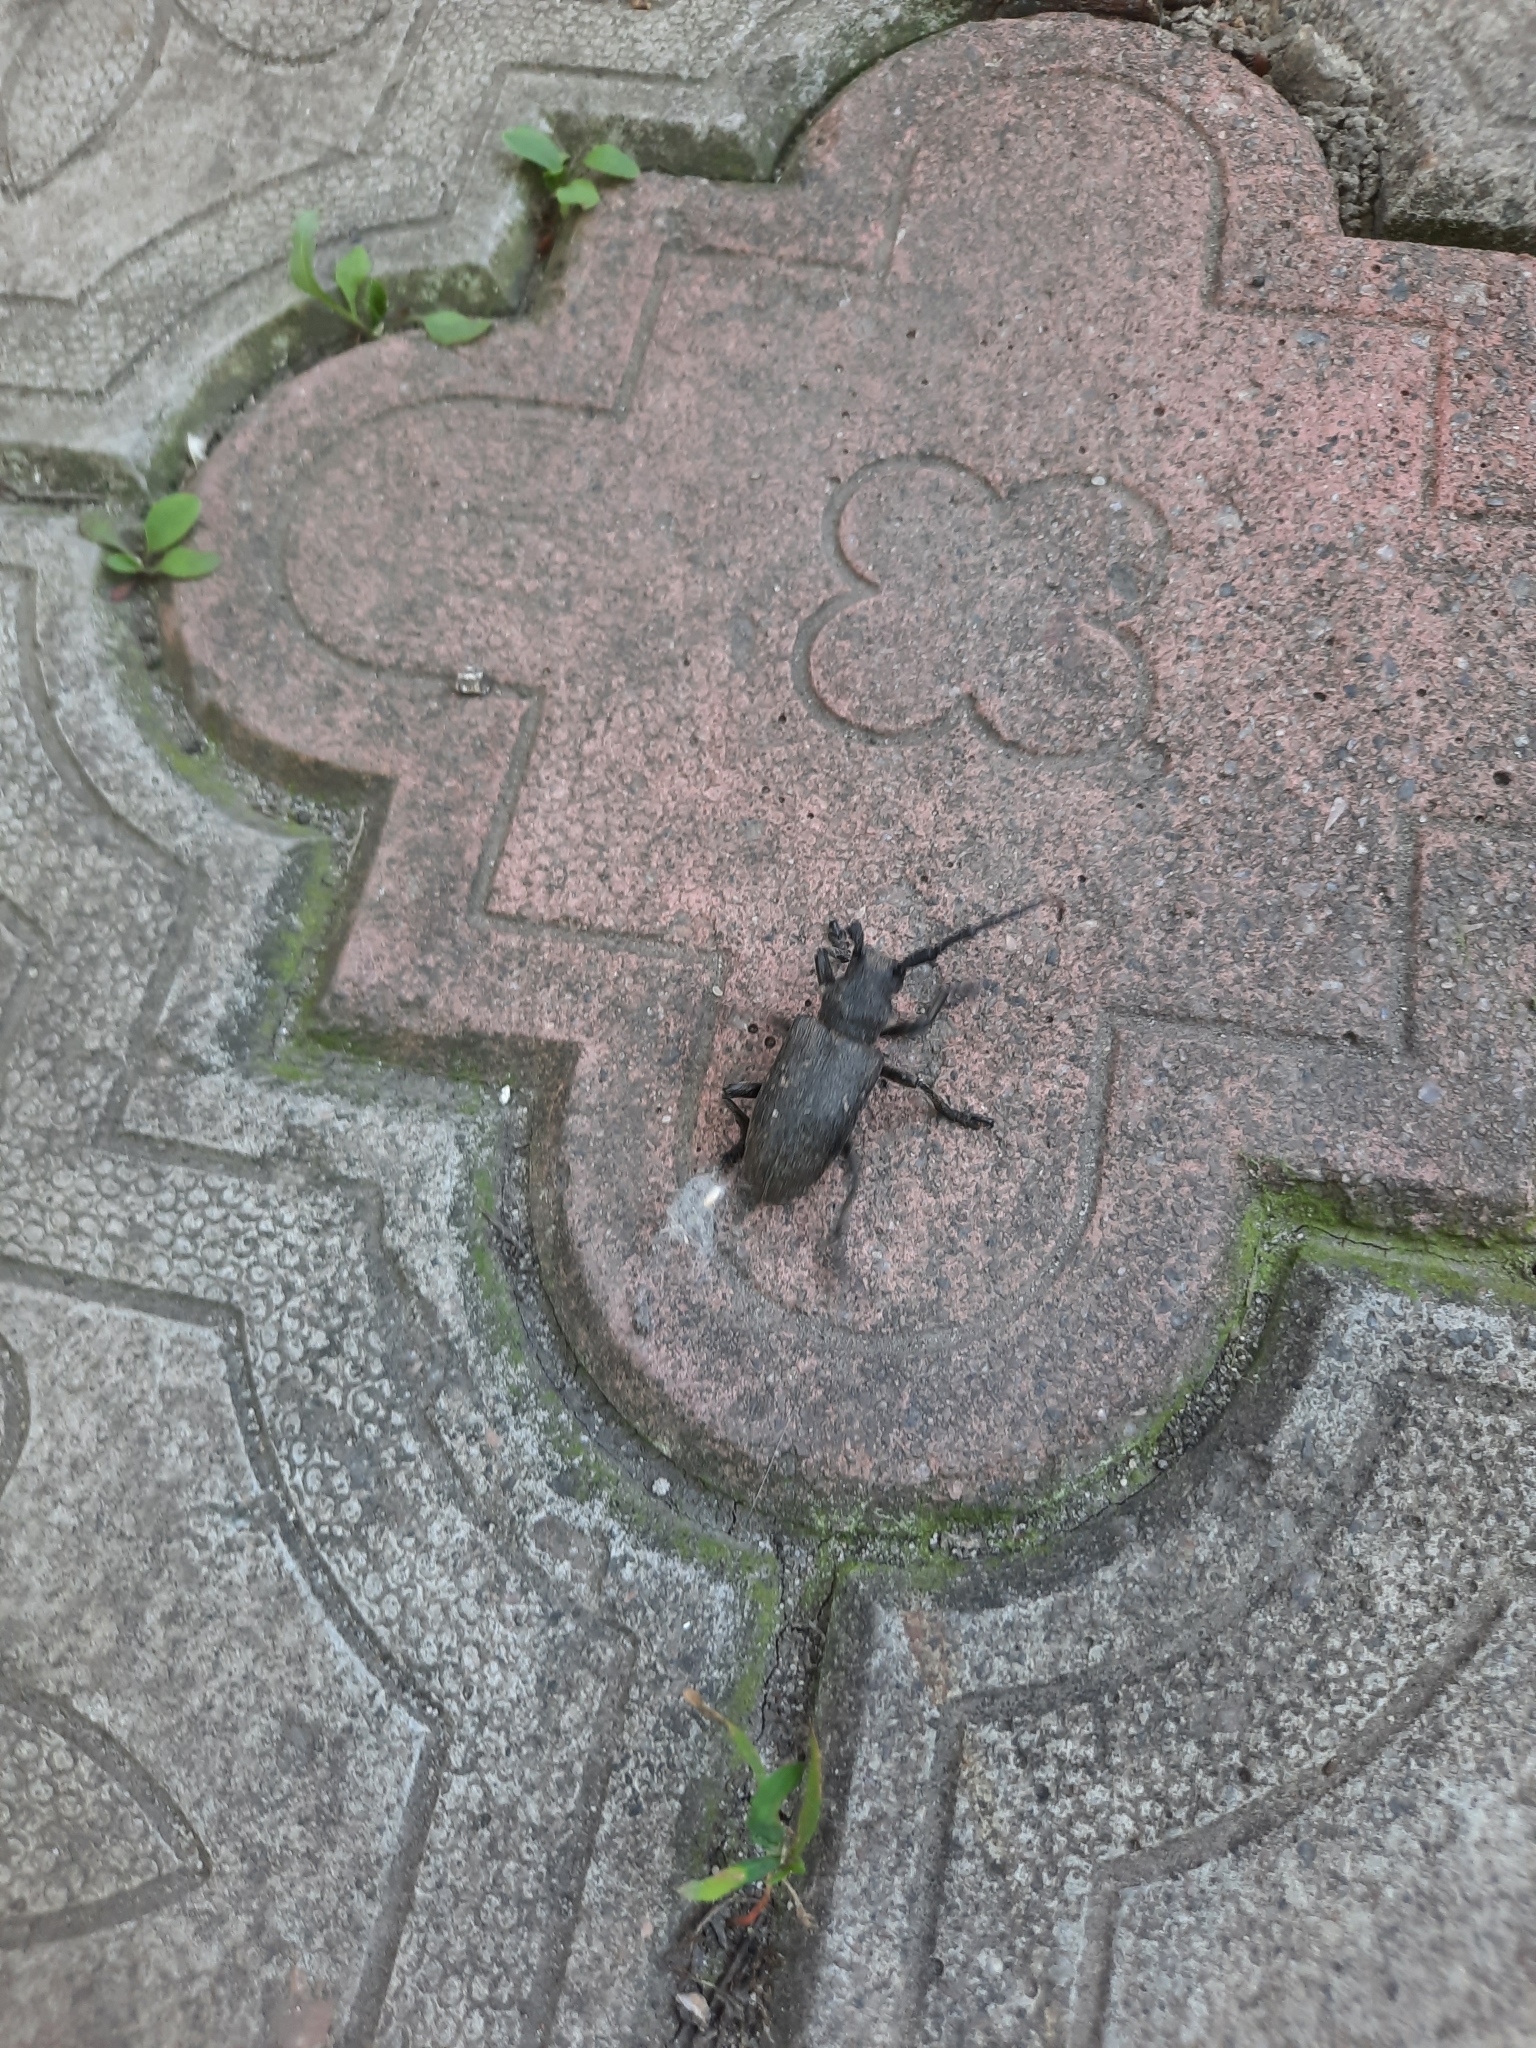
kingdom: Animalia
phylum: Arthropoda
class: Insecta
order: Coleoptera
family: Cerambycidae
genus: Lamia
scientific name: Lamia textor
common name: Weaver beetle
